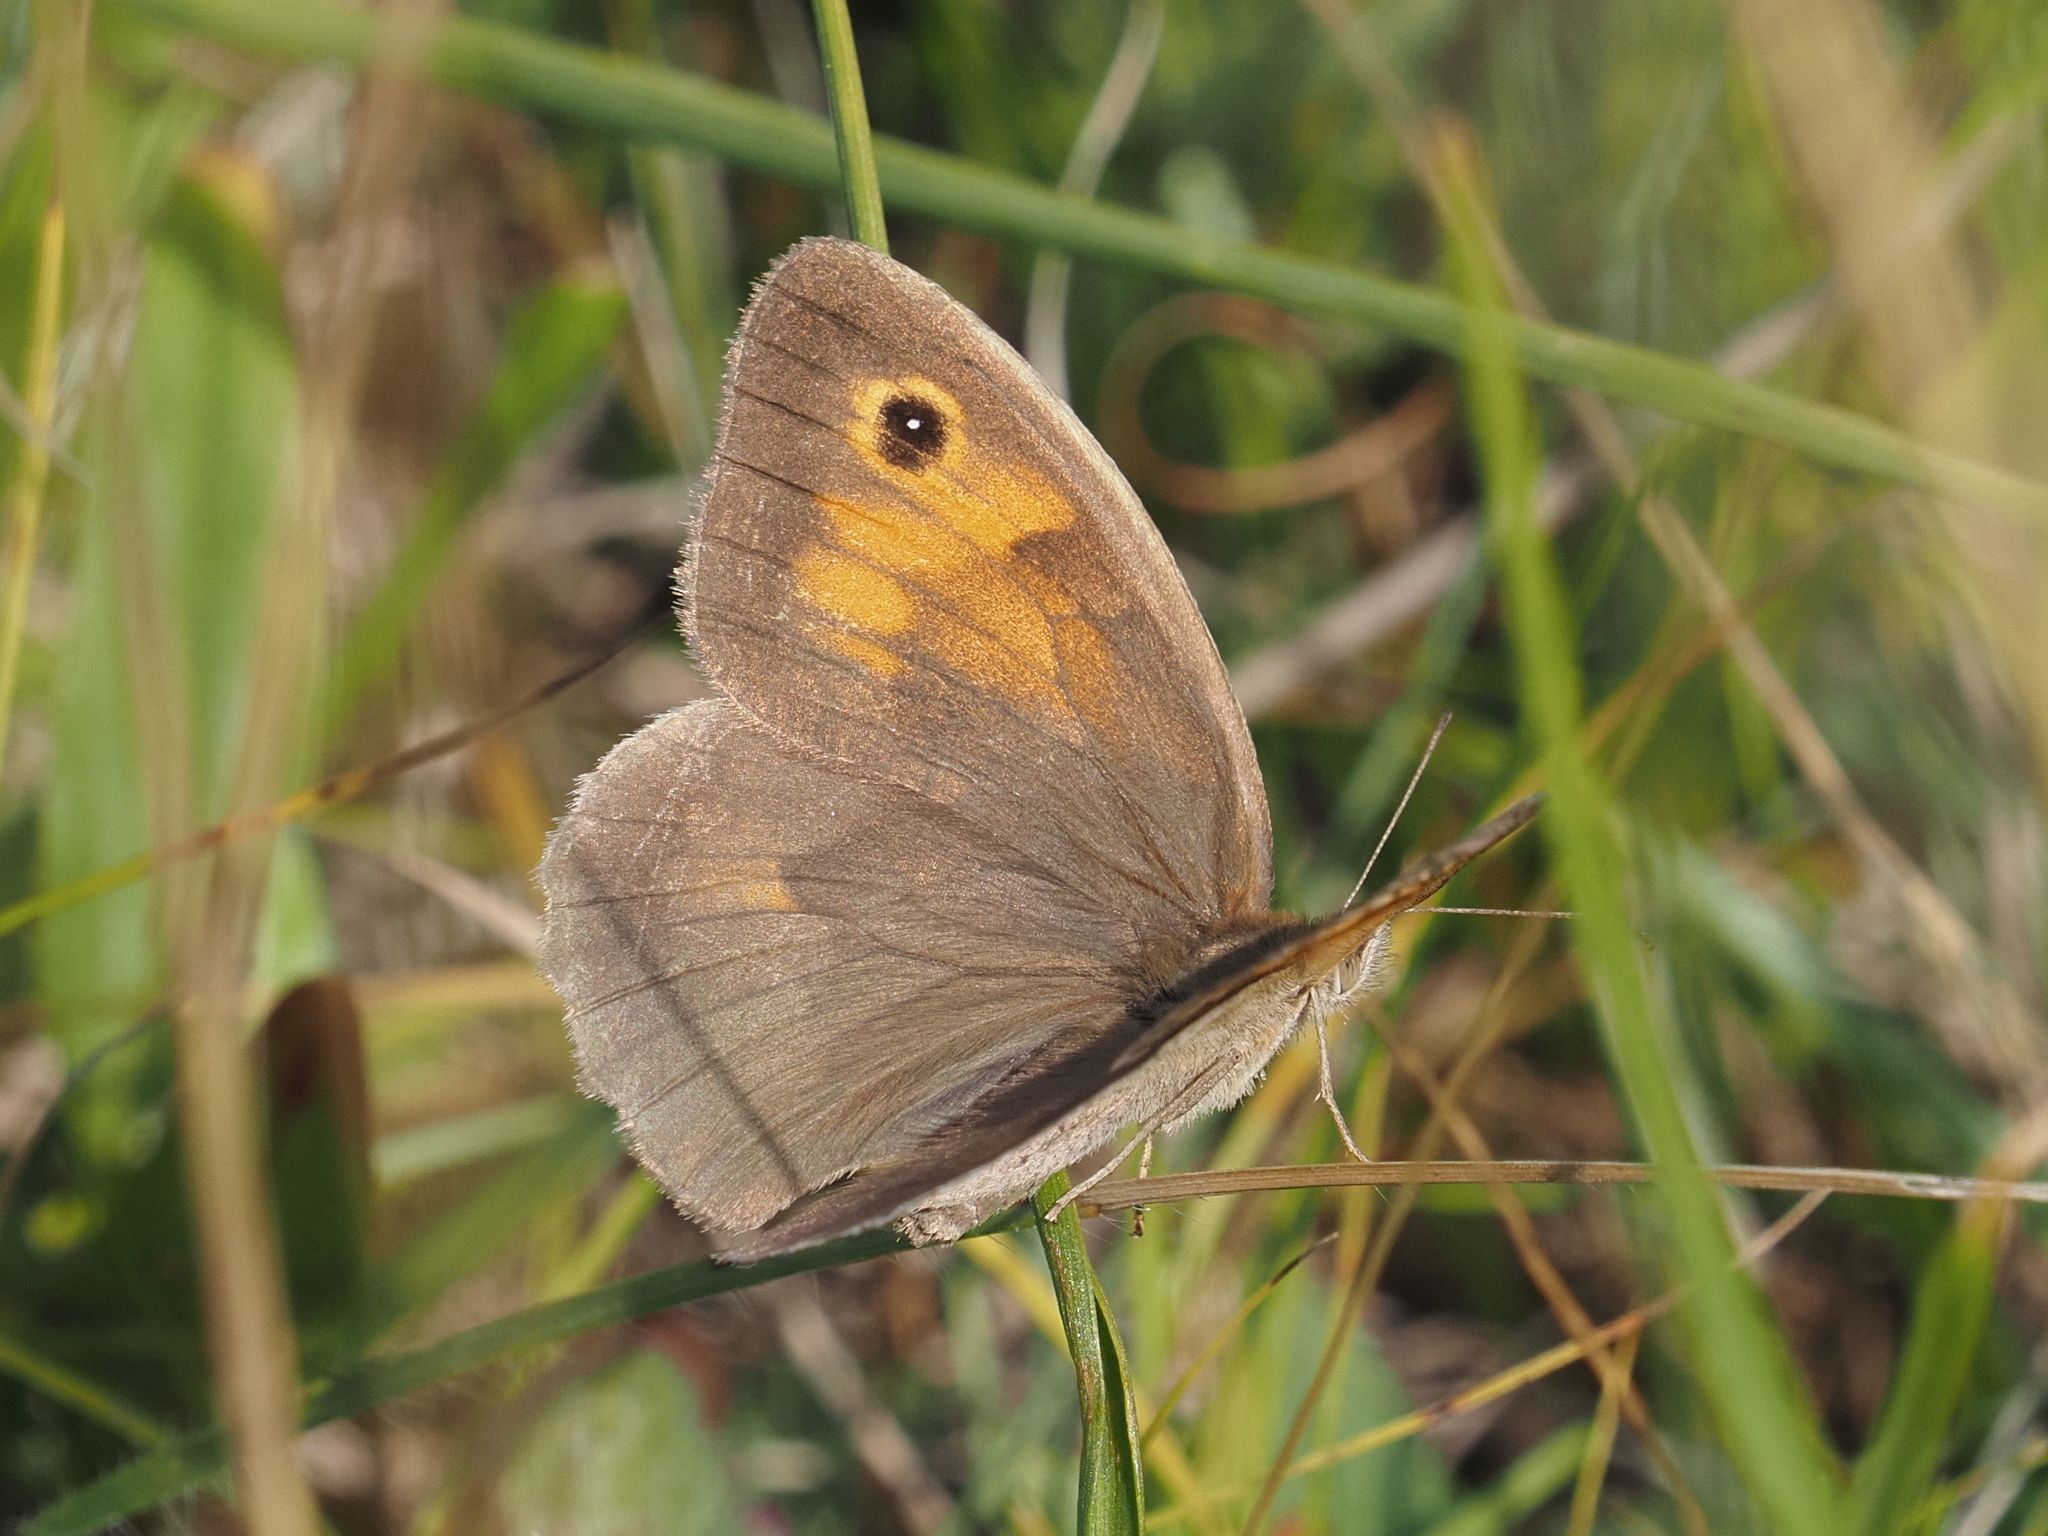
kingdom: Animalia
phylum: Arthropoda
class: Insecta
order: Lepidoptera
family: Nymphalidae
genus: Maniola
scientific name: Maniola jurtina
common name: Meadow brown
